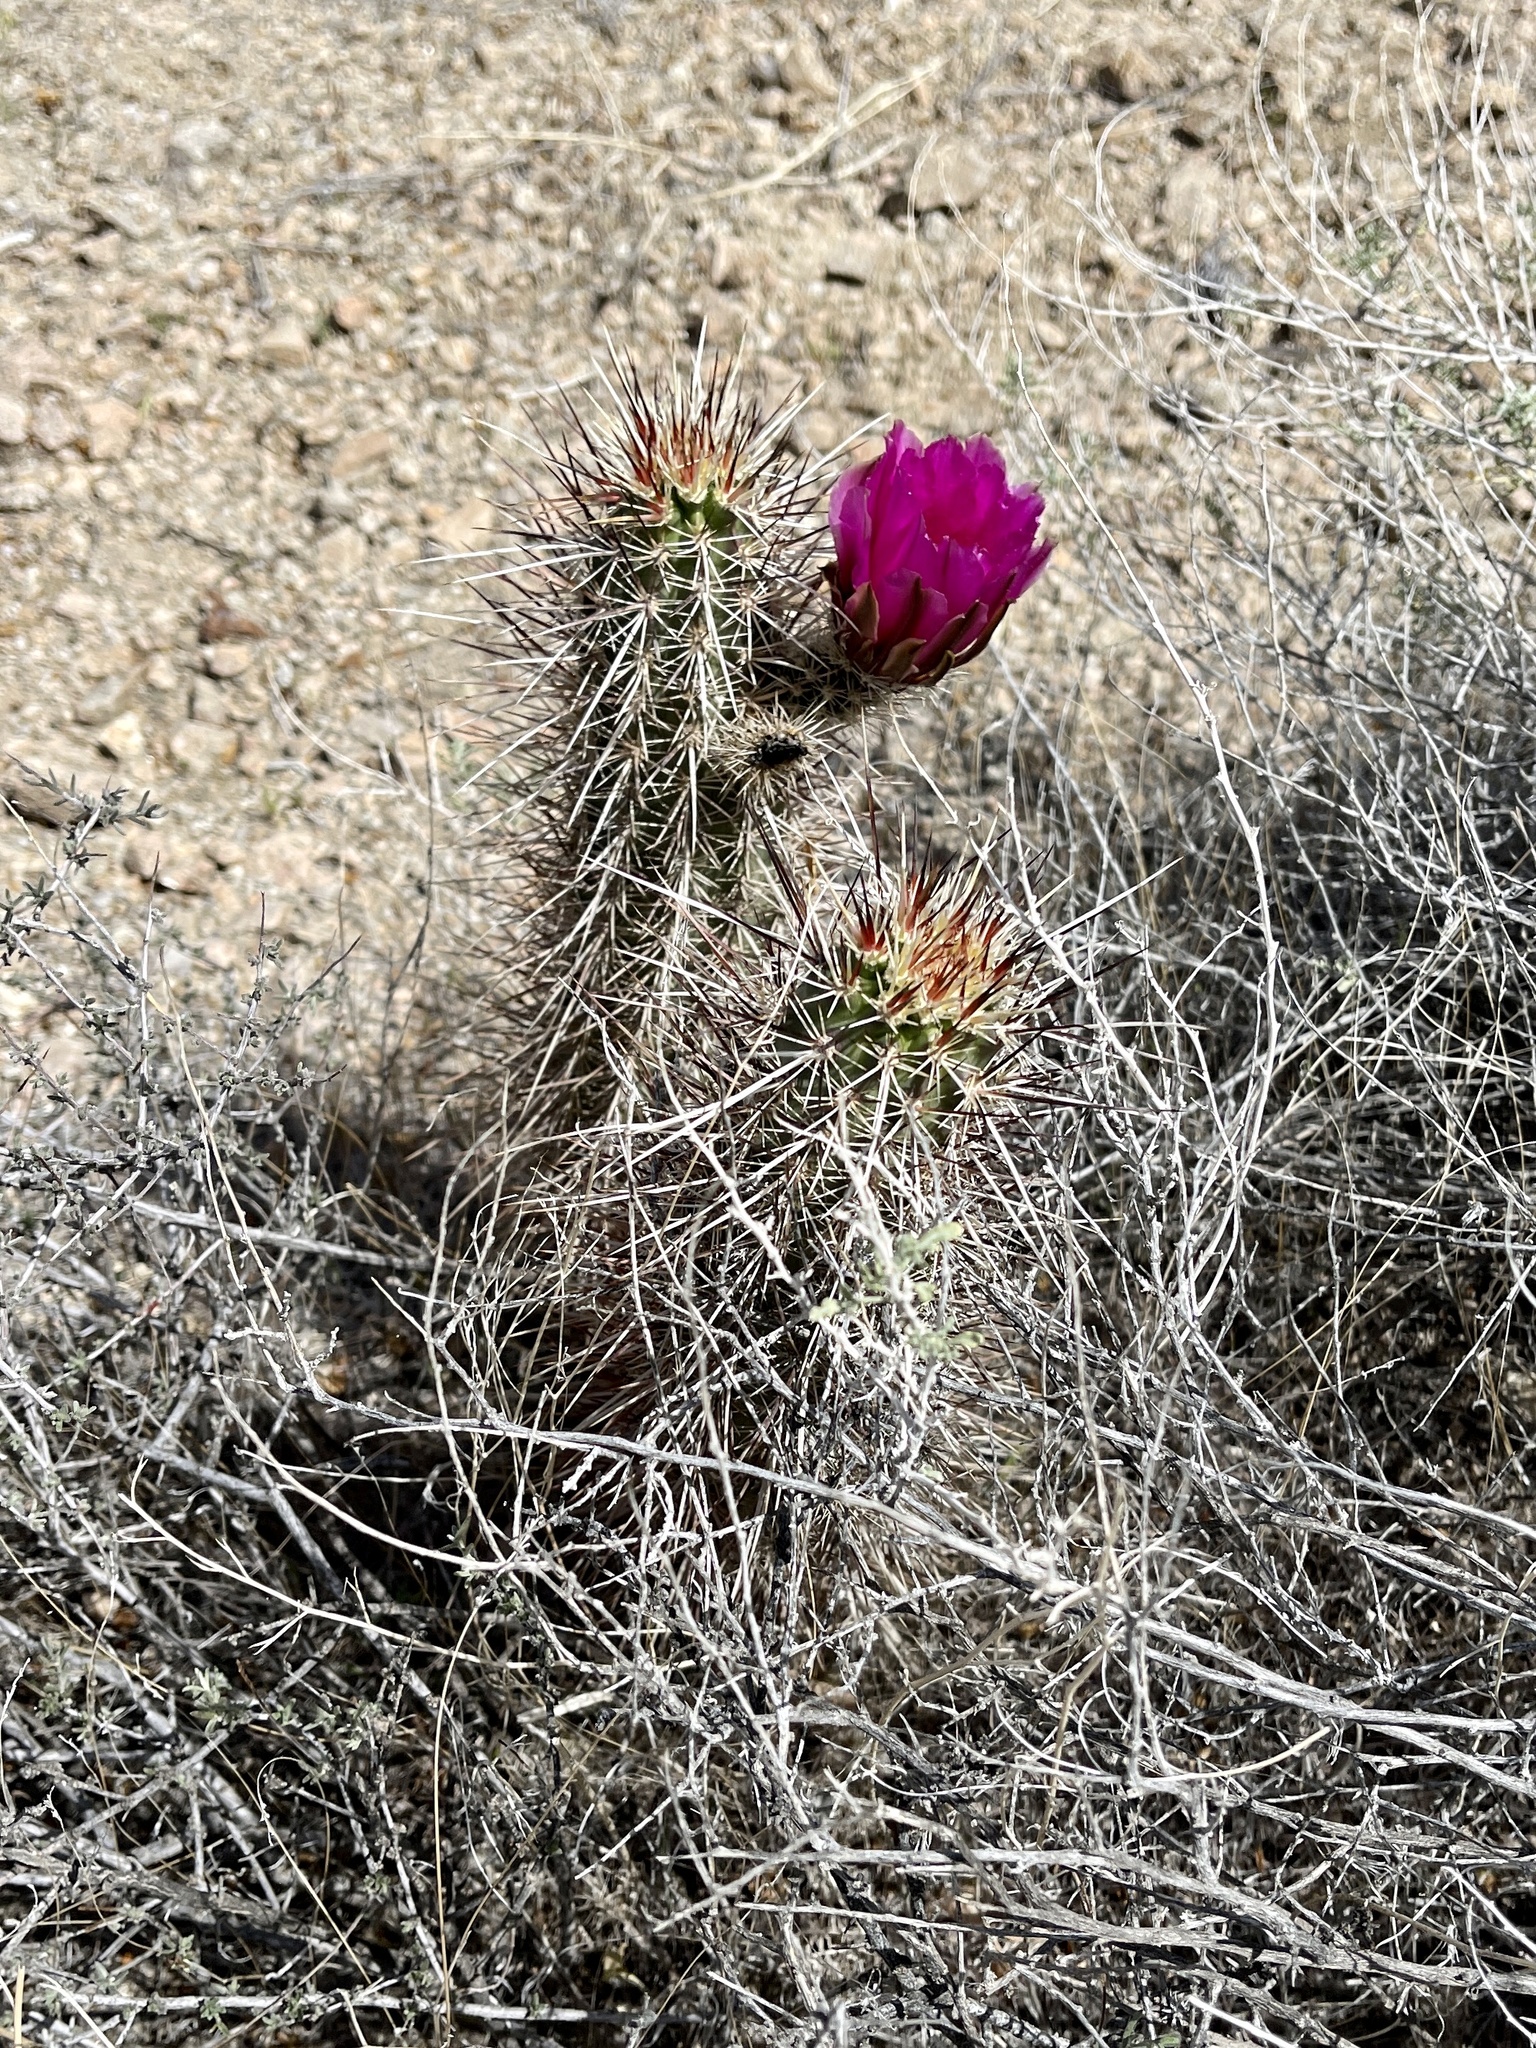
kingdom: Plantae
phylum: Tracheophyta
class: Magnoliopsida
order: Caryophyllales
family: Cactaceae
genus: Echinocereus
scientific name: Echinocereus engelmannii
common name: Engelmann's hedgehog cactus
